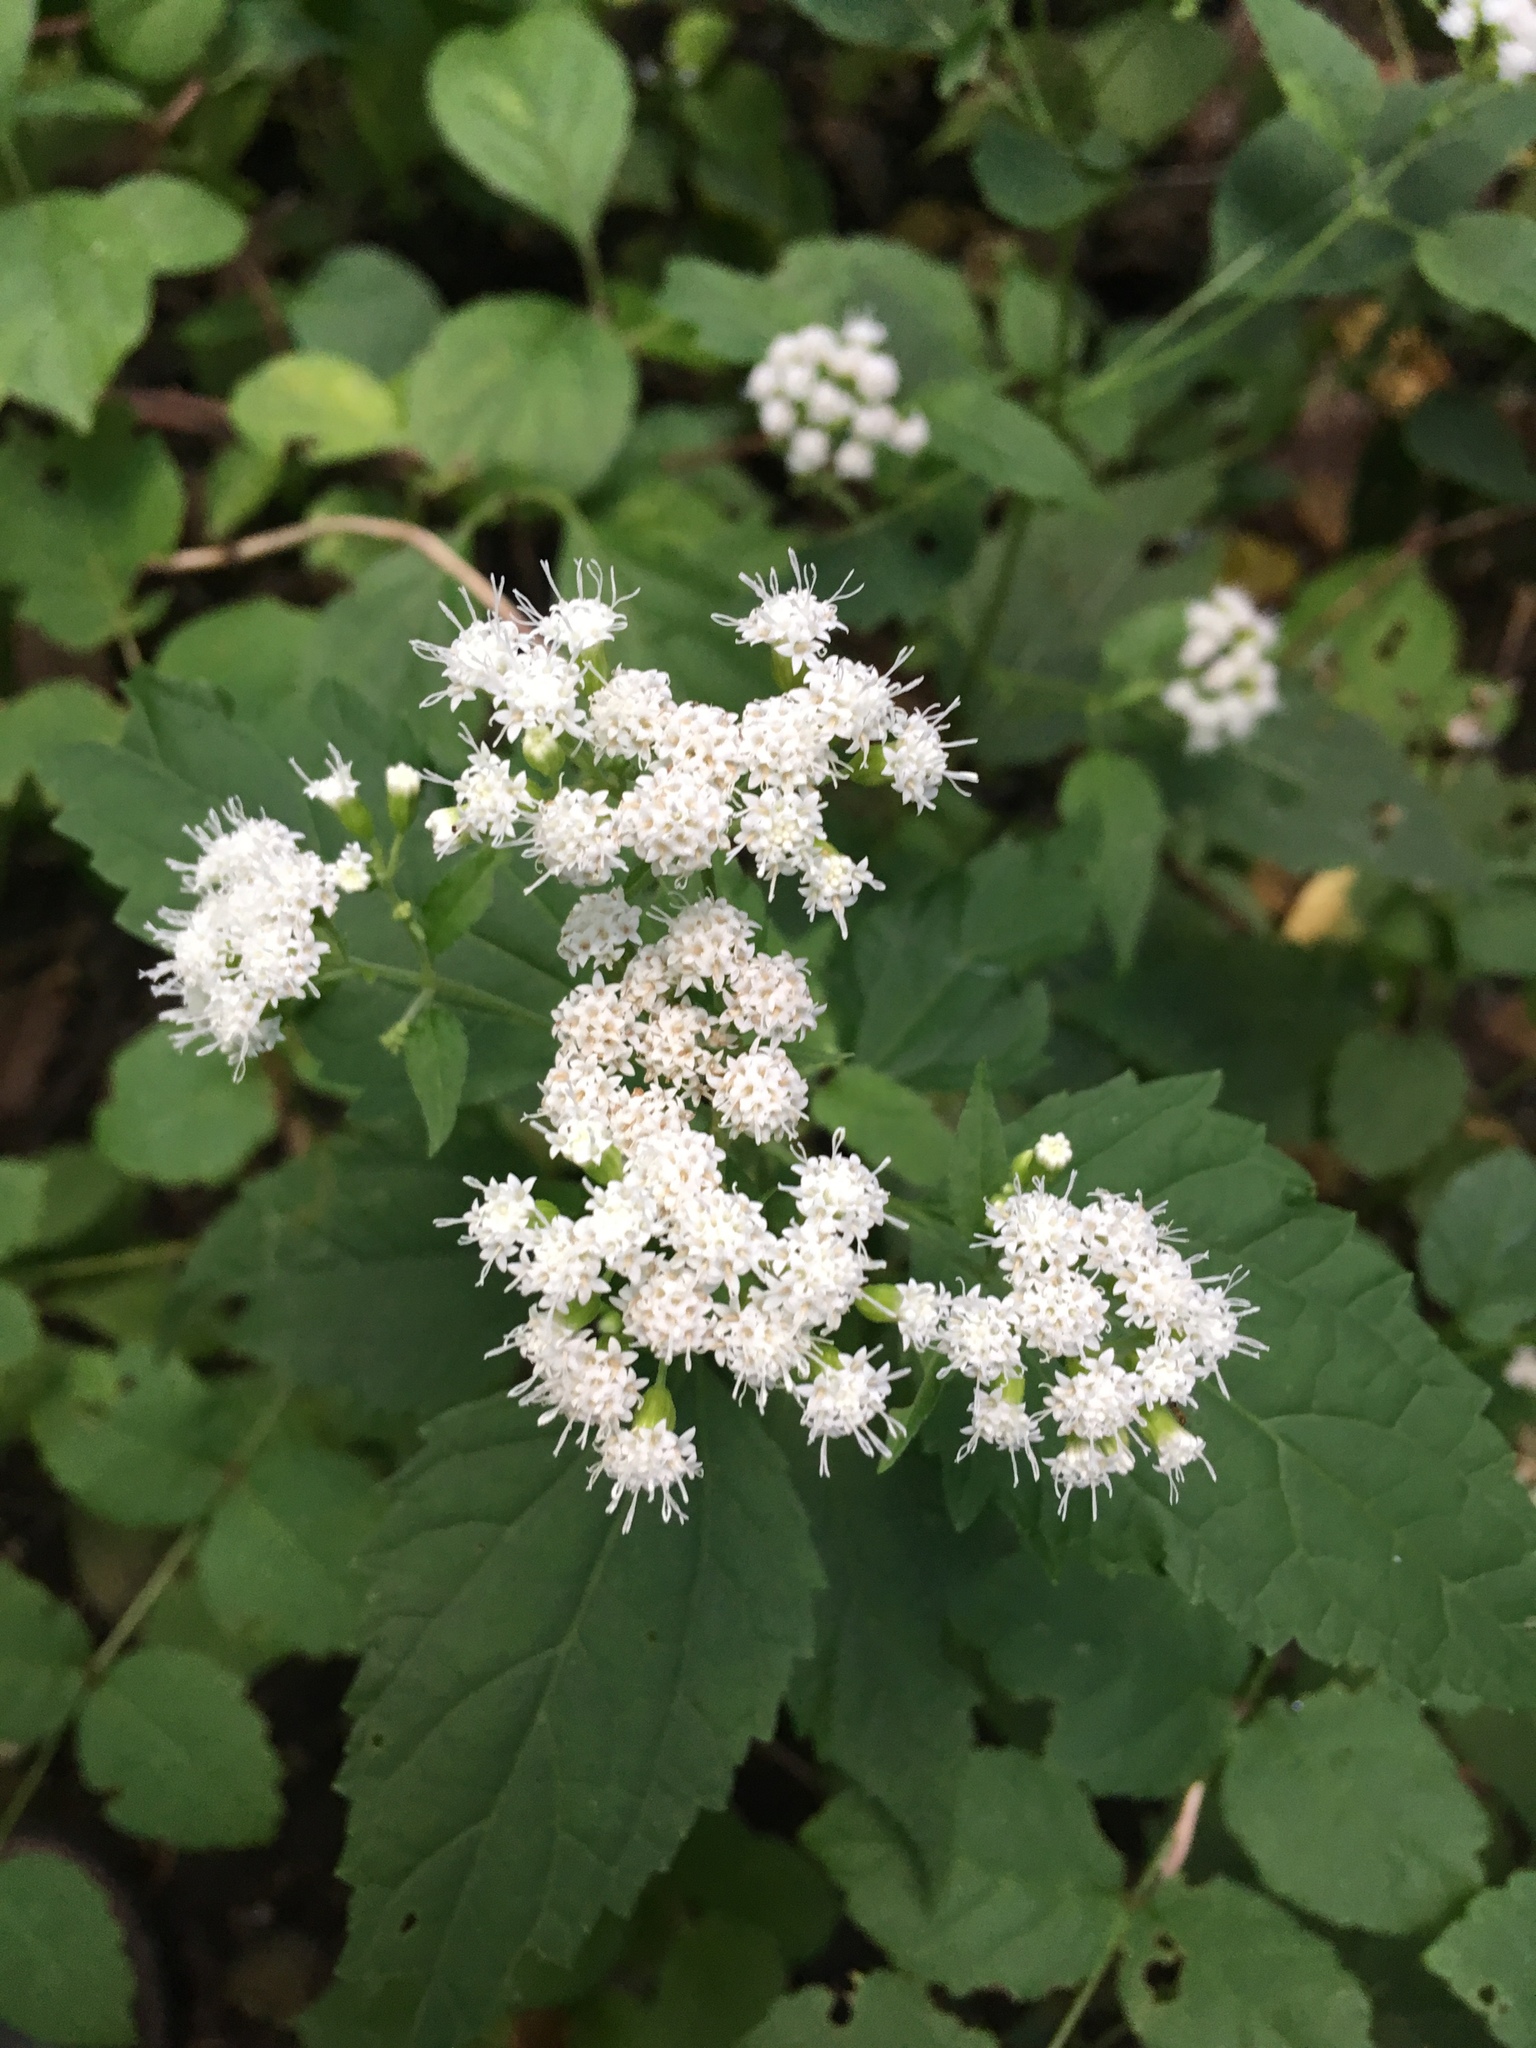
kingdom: Plantae
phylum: Tracheophyta
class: Magnoliopsida
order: Asterales
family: Asteraceae
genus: Ageratina
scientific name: Ageratina altissima
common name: White snakeroot
